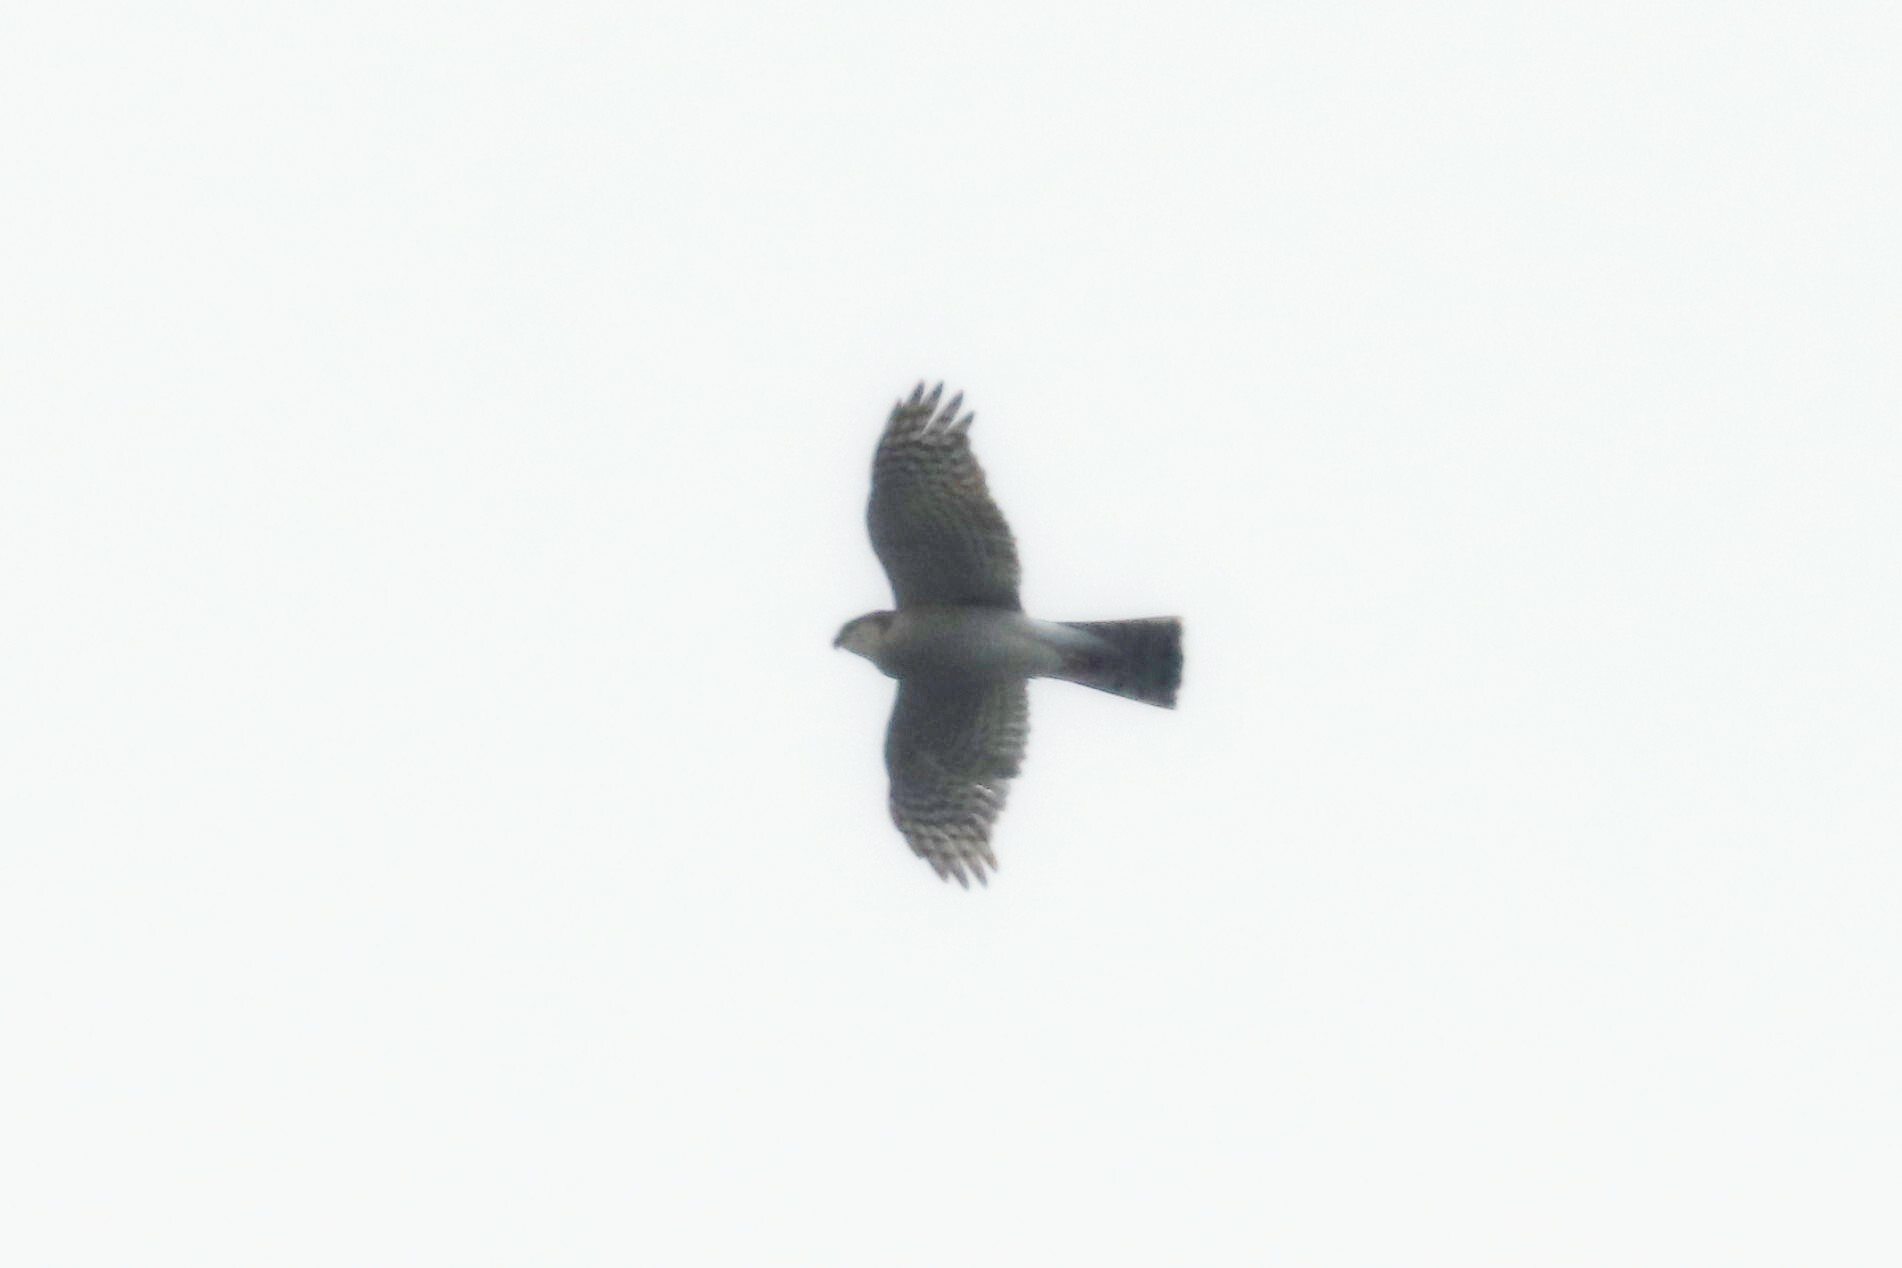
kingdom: Animalia
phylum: Chordata
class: Aves
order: Accipitriformes
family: Accipitridae
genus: Accipiter
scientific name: Accipiter nisus
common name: Eurasian sparrowhawk
